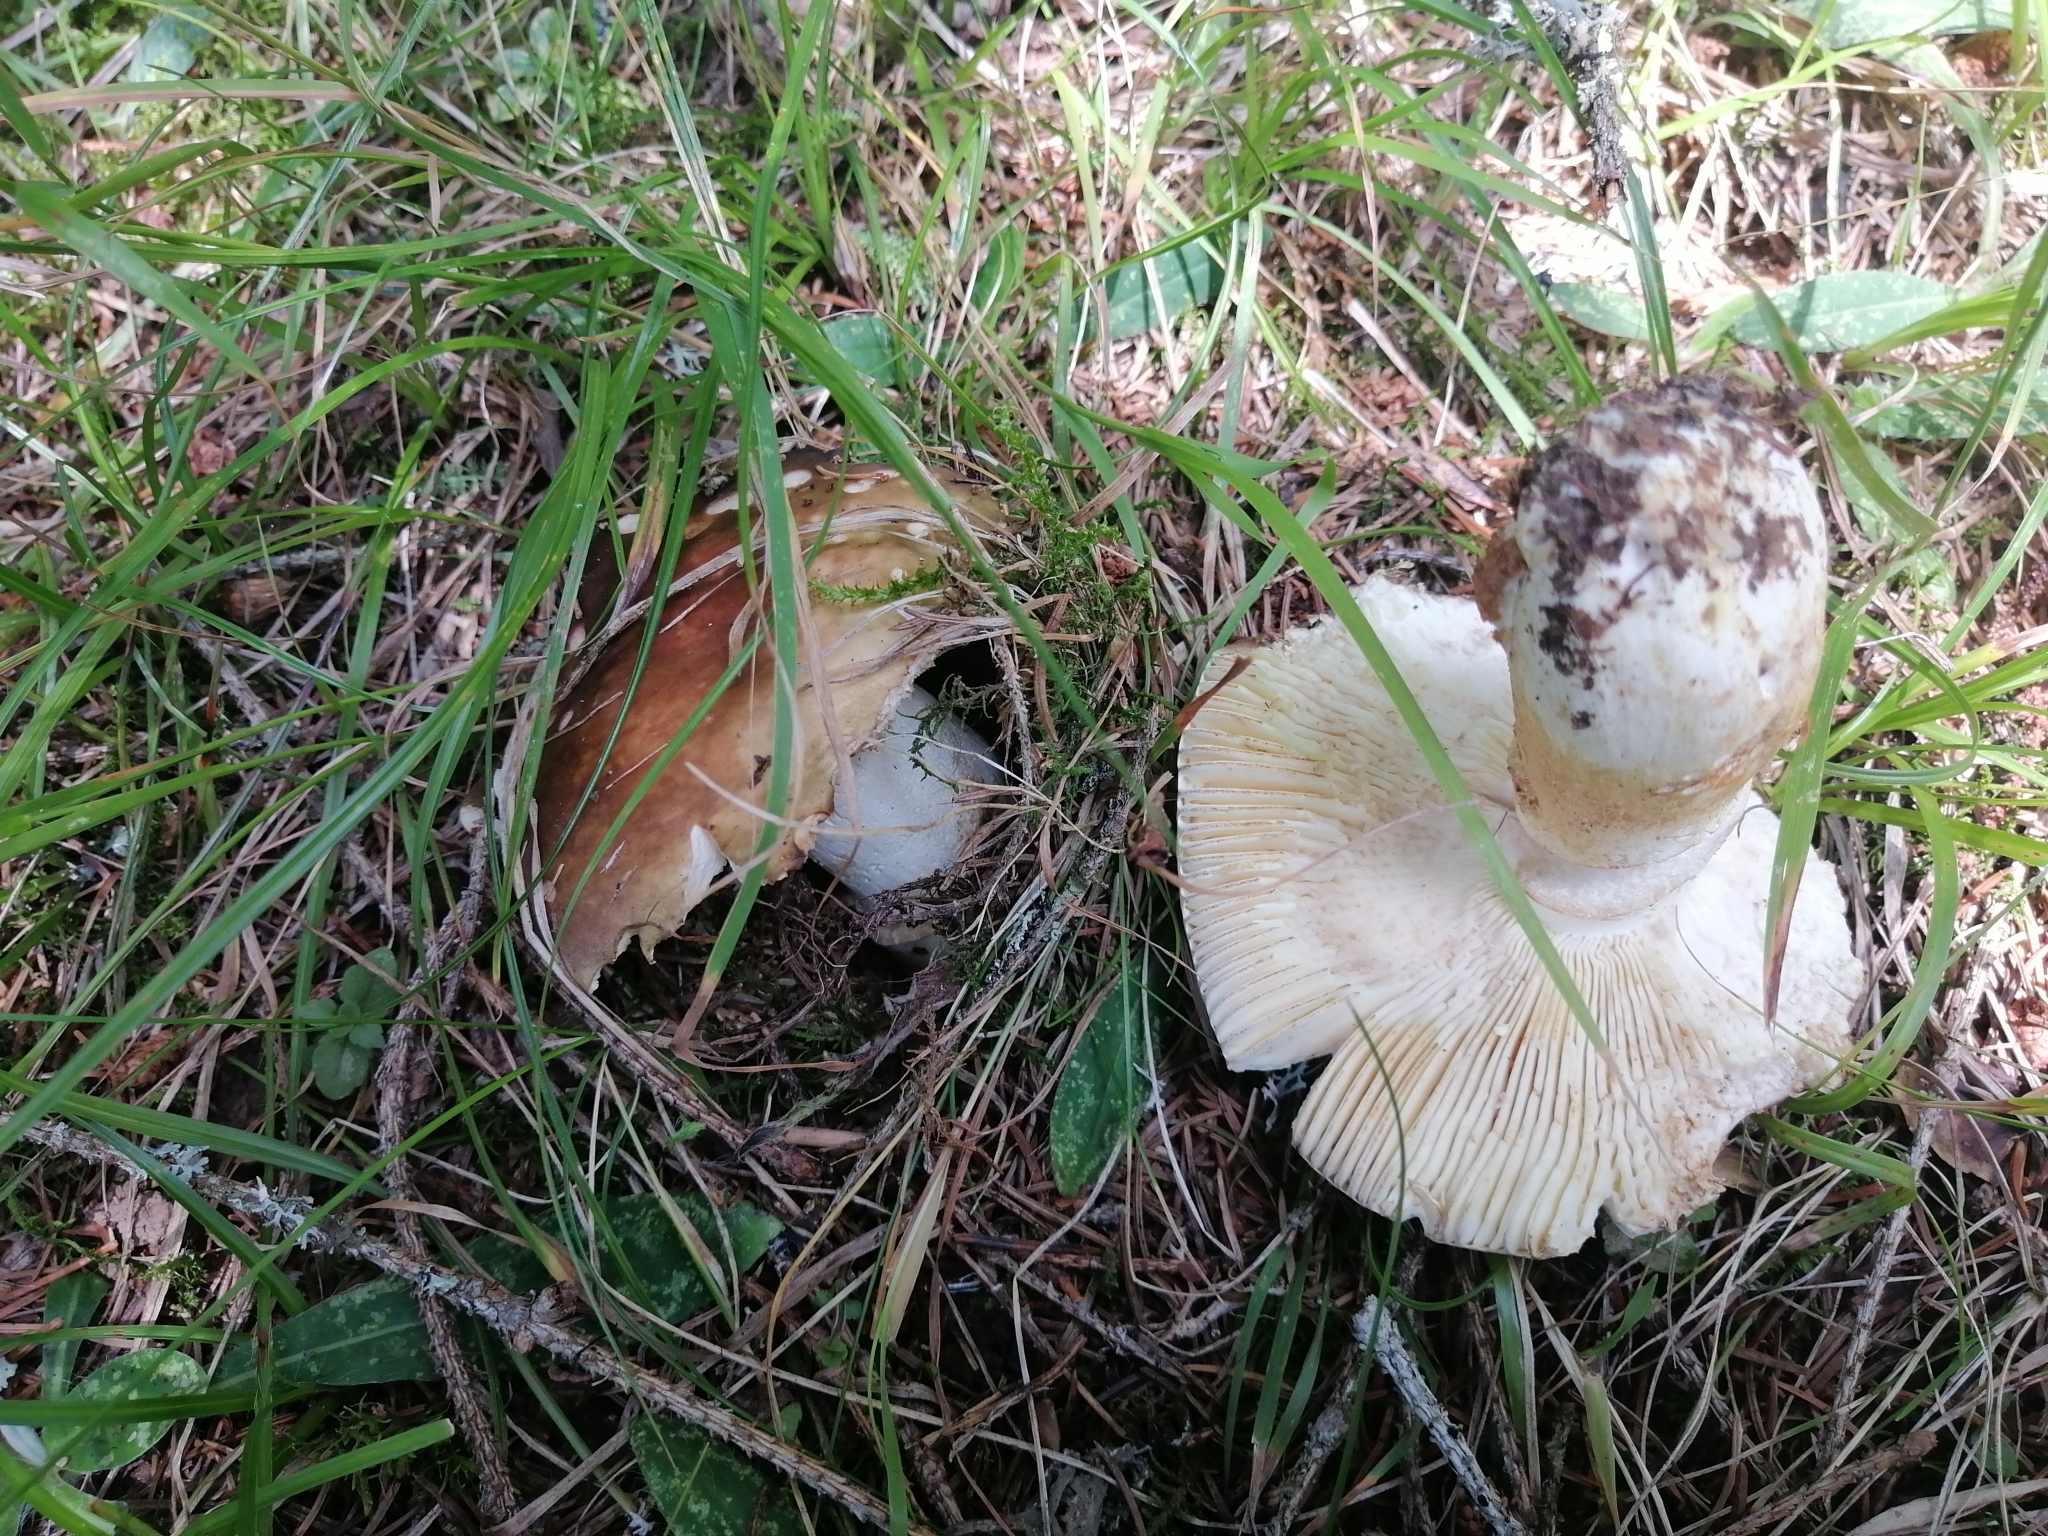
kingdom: Fungi
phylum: Basidiomycota
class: Agaricomycetes
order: Russulales
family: Russulaceae
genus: Russula
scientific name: Russula viscida
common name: Viscid brittlegill
